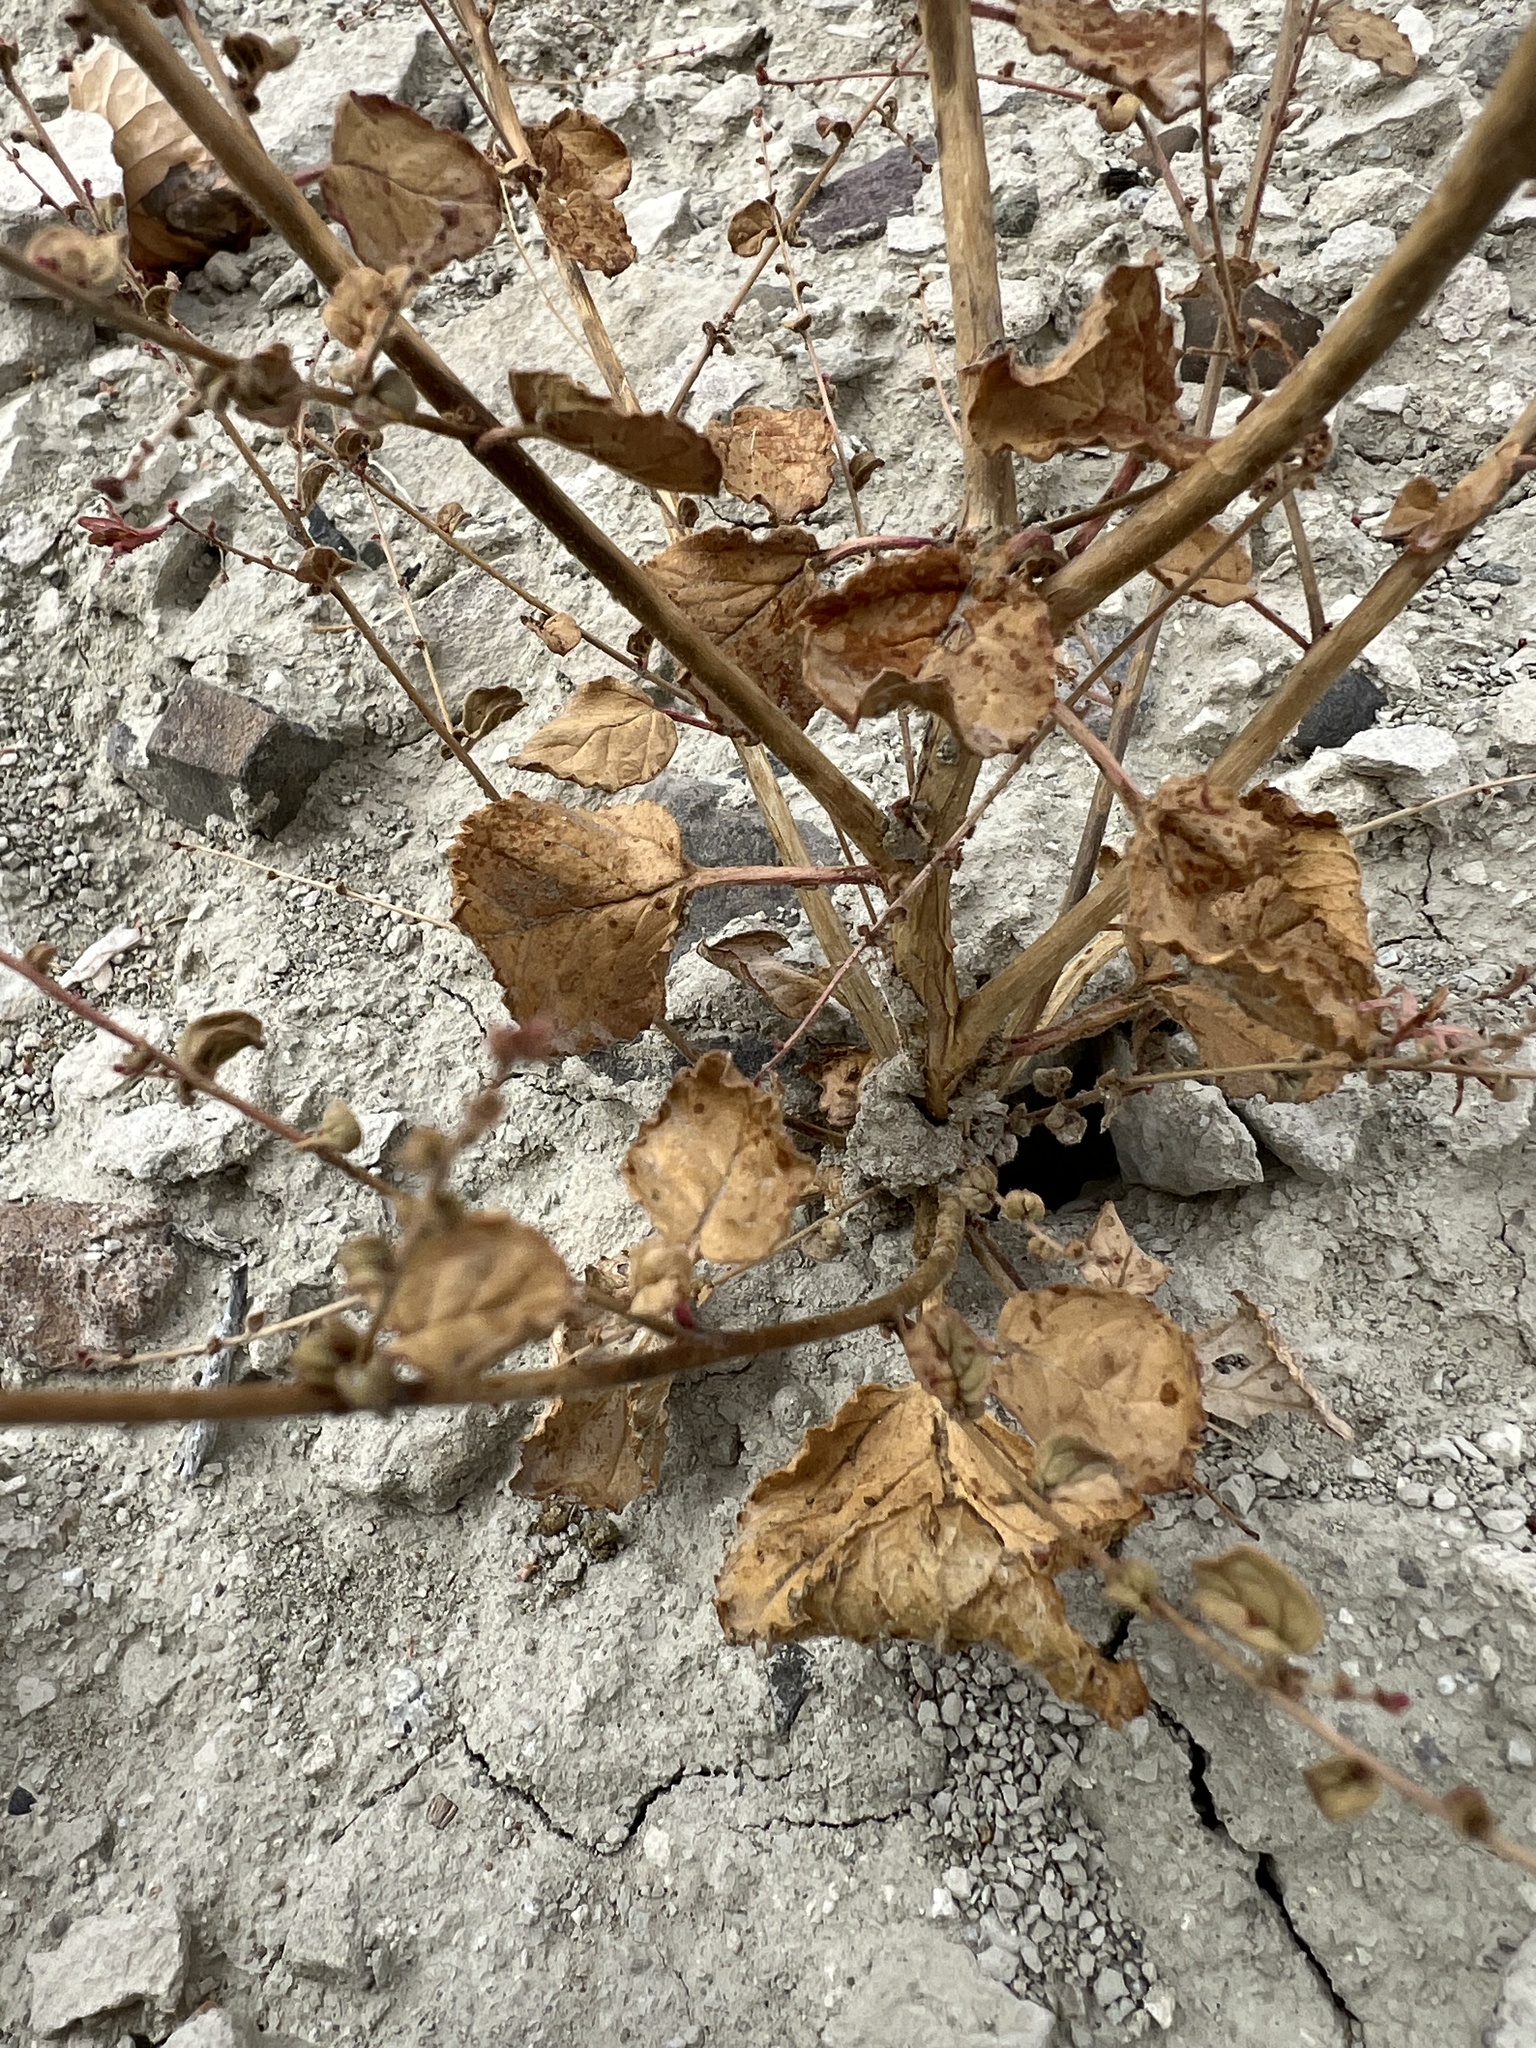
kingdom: Plantae
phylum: Tracheophyta
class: Magnoliopsida
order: Myrtales
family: Onagraceae
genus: Chylismia
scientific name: Chylismia heterochroma
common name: Shockley's evening primrose
